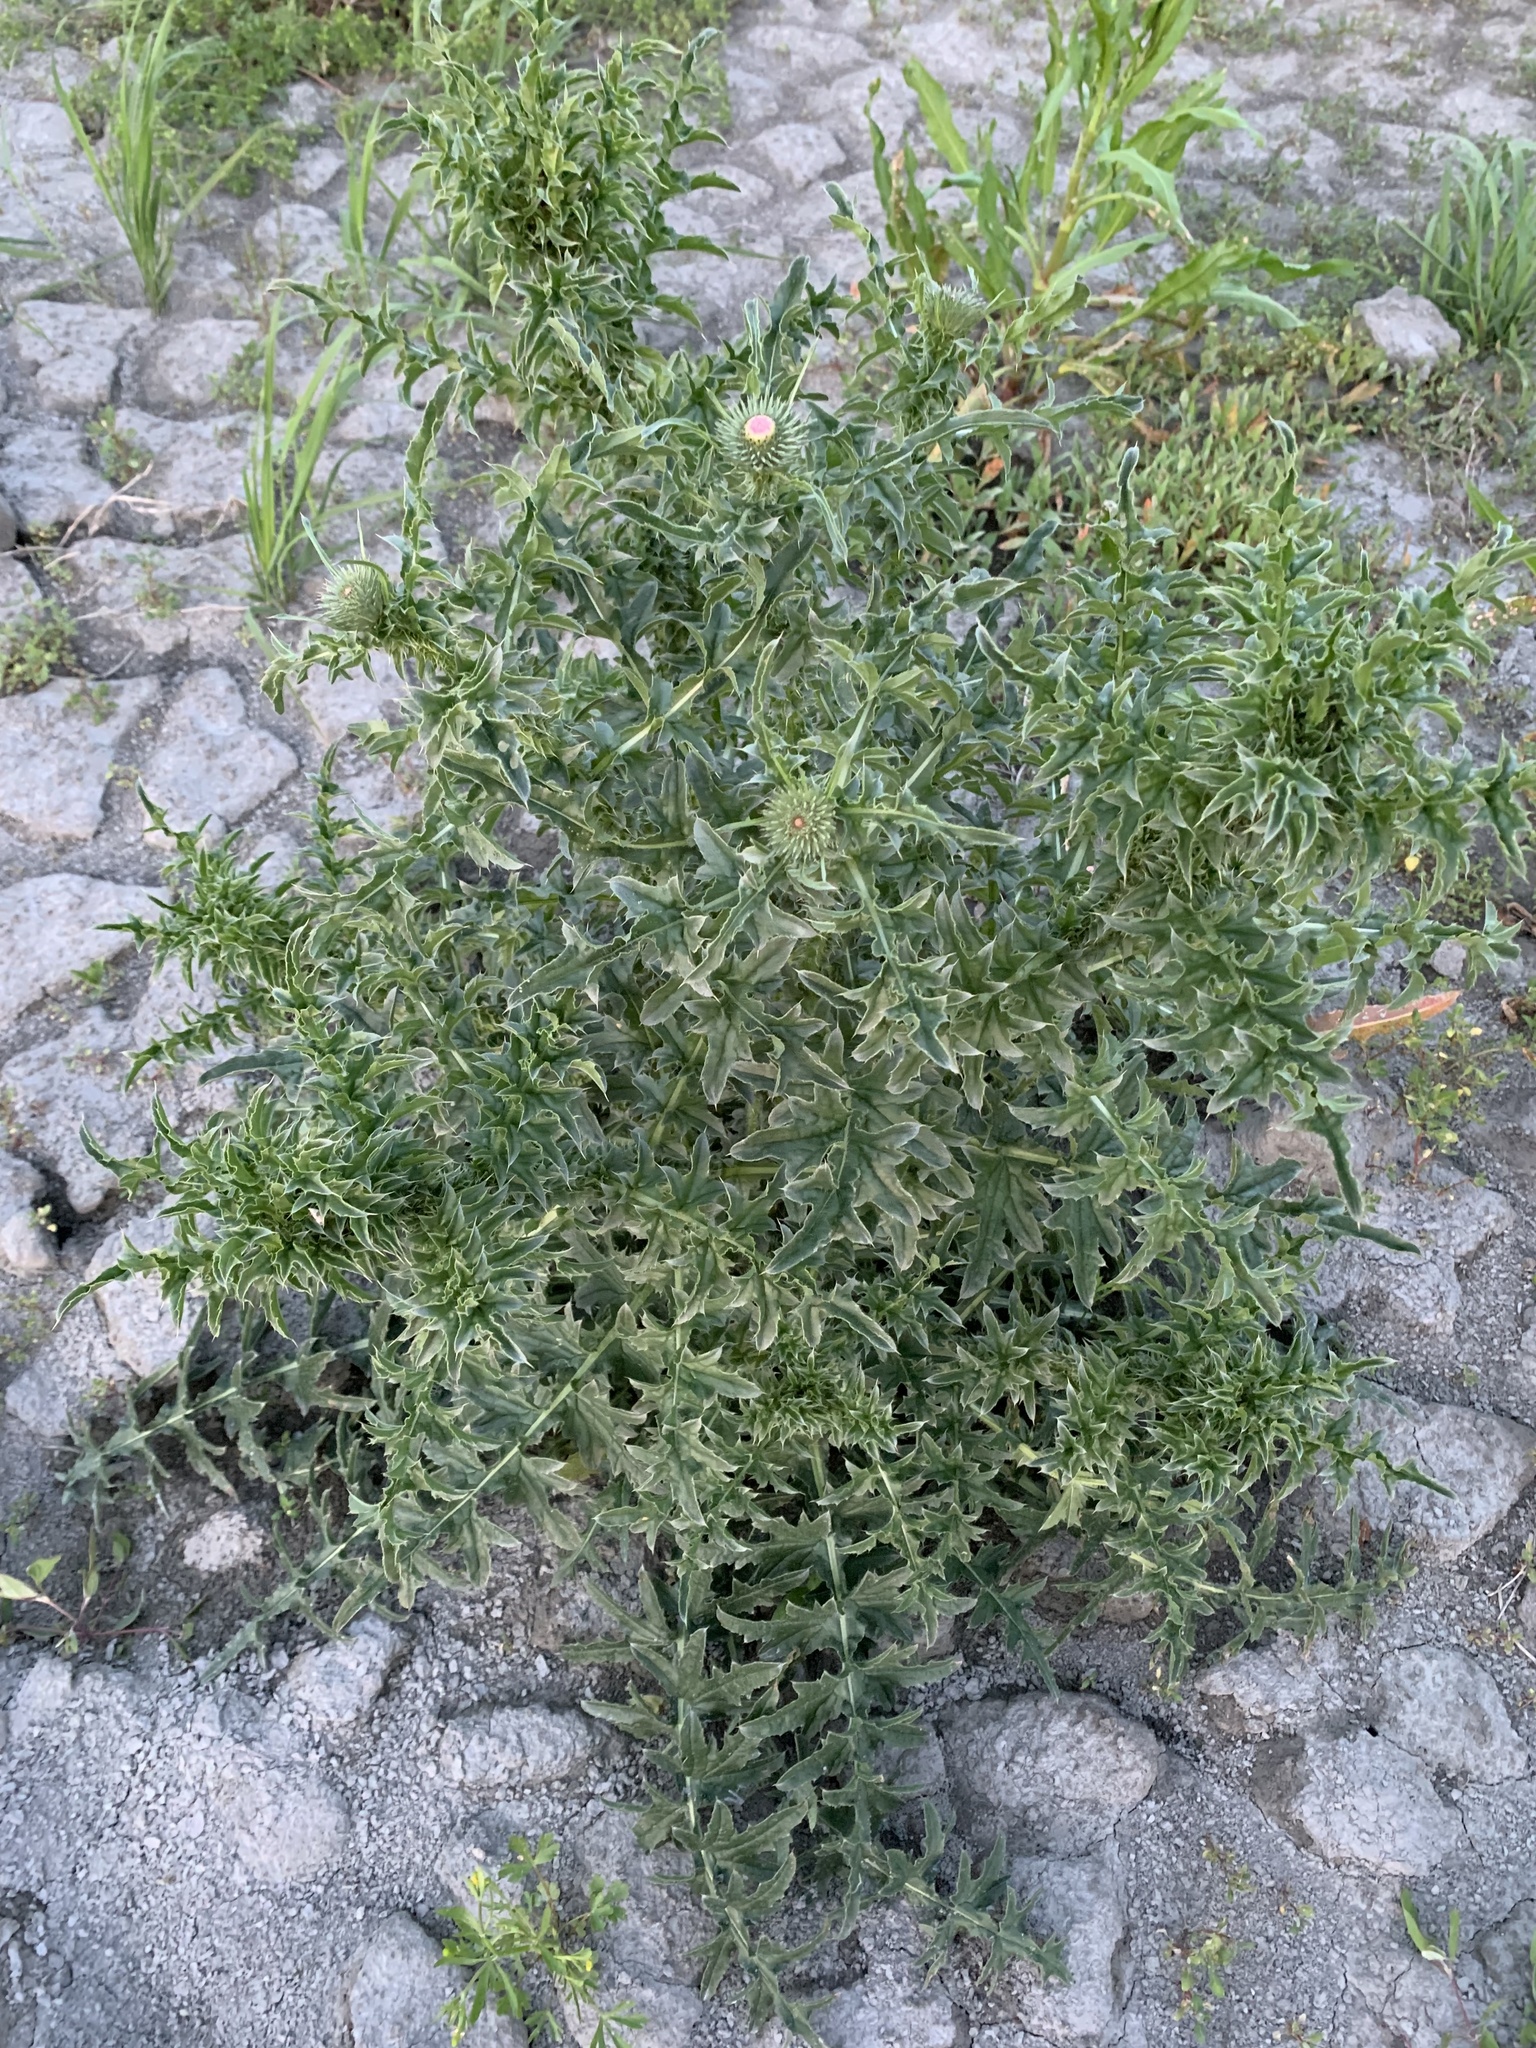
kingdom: Plantae
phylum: Tracheophyta
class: Magnoliopsida
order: Asterales
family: Asteraceae
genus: Carduus
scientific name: Carduus acanthoides
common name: Plumeless thistle
